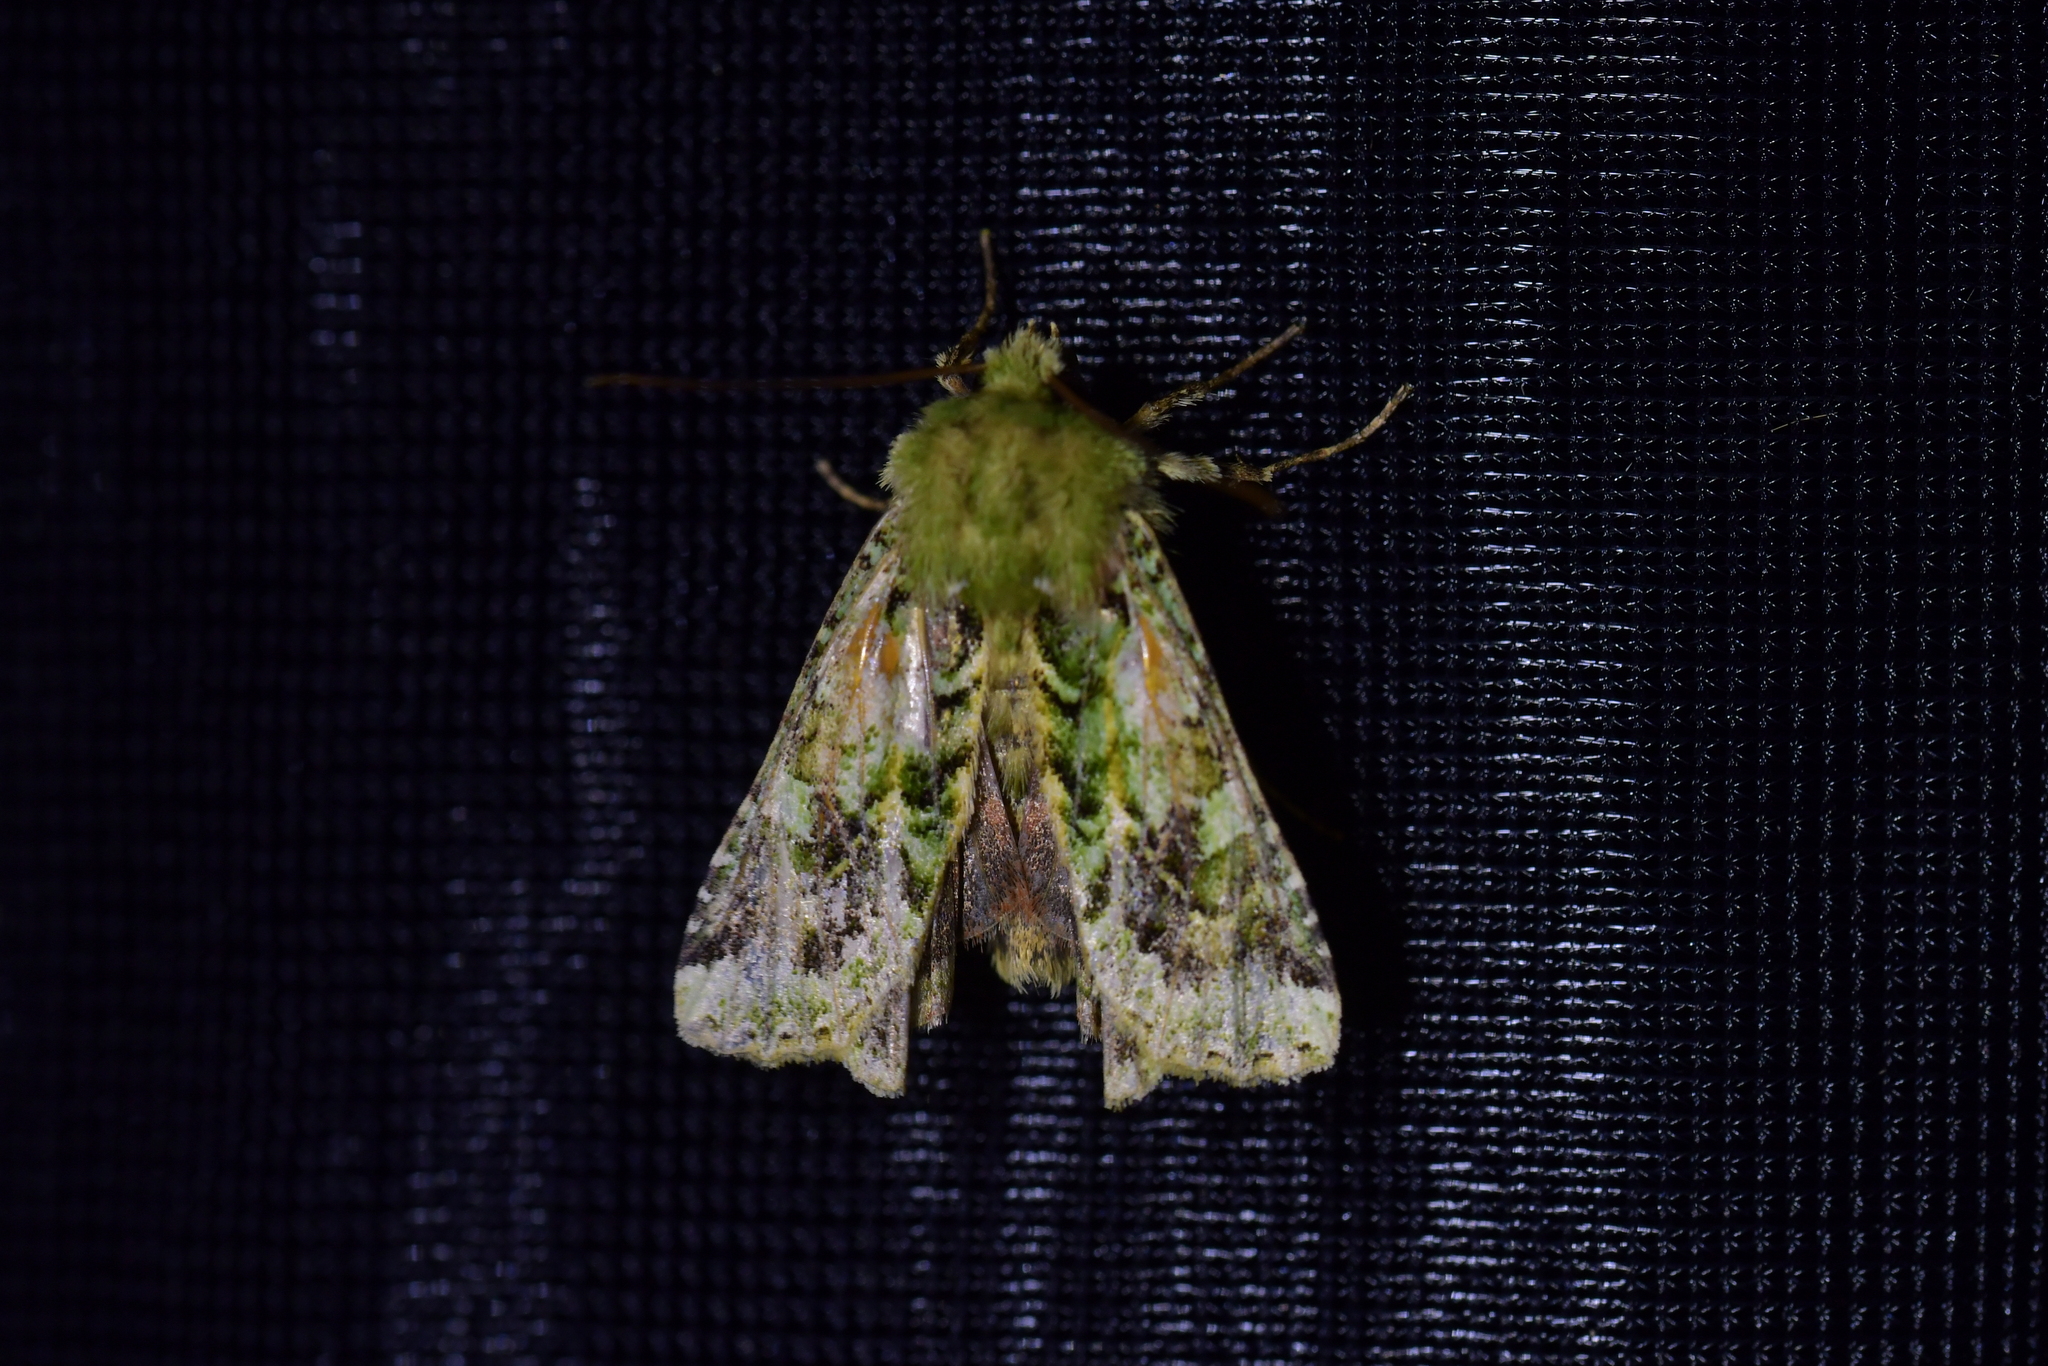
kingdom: Animalia
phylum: Arthropoda
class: Insecta
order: Lepidoptera
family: Noctuidae
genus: Feredayia
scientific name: Feredayia grammosa
